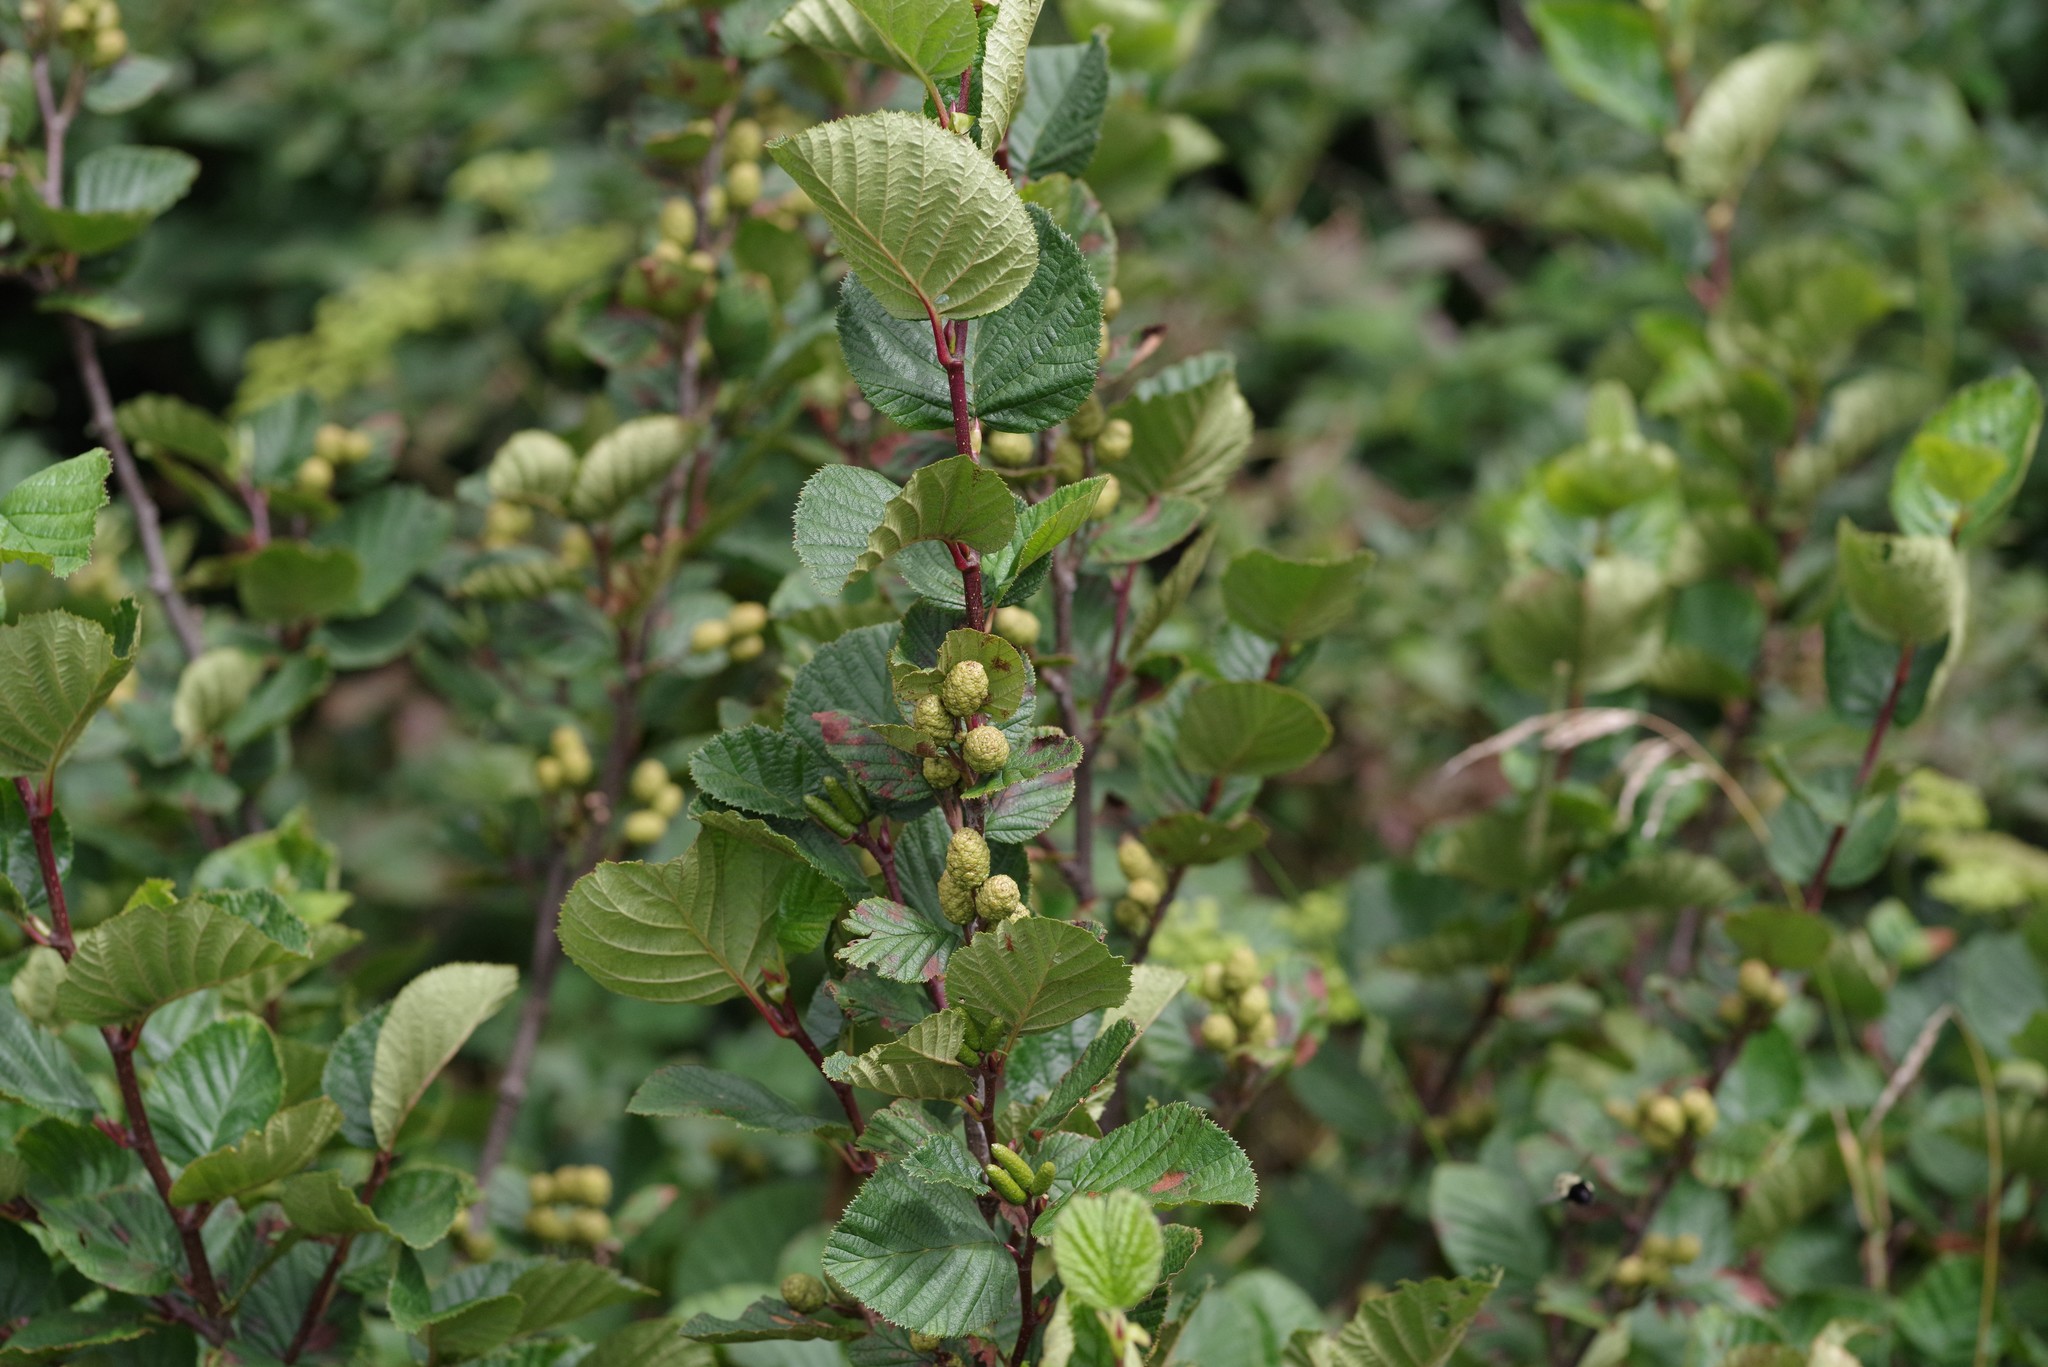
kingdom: Plantae
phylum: Tracheophyta
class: Magnoliopsida
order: Fagales
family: Betulaceae
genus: Alnus
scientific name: Alnus alnobetula
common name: Green alder
